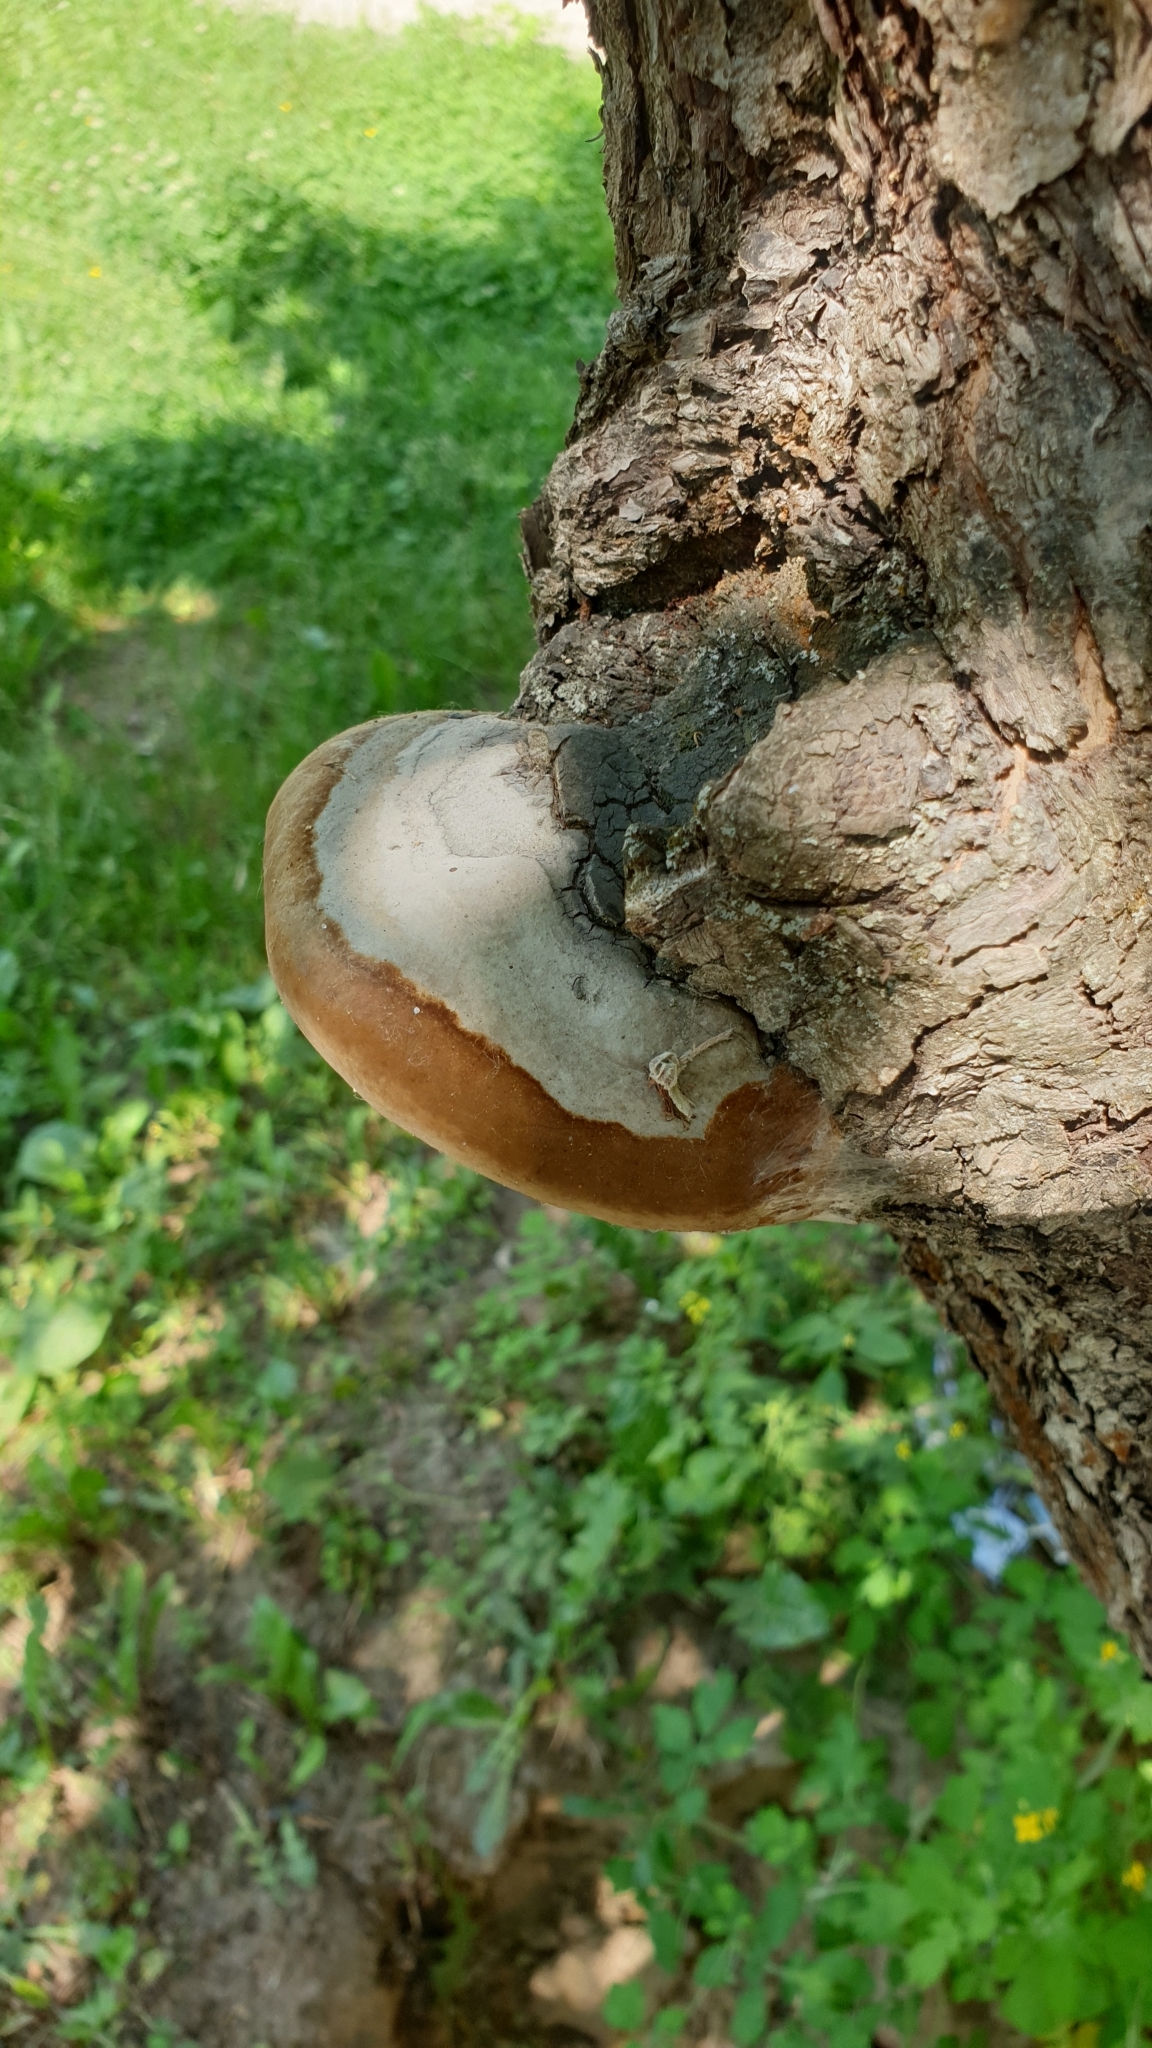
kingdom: Fungi
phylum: Basidiomycota
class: Agaricomycetes
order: Hymenochaetales
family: Hymenochaetaceae
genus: Phellinus
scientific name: Phellinus igniarius
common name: Willow bracket
